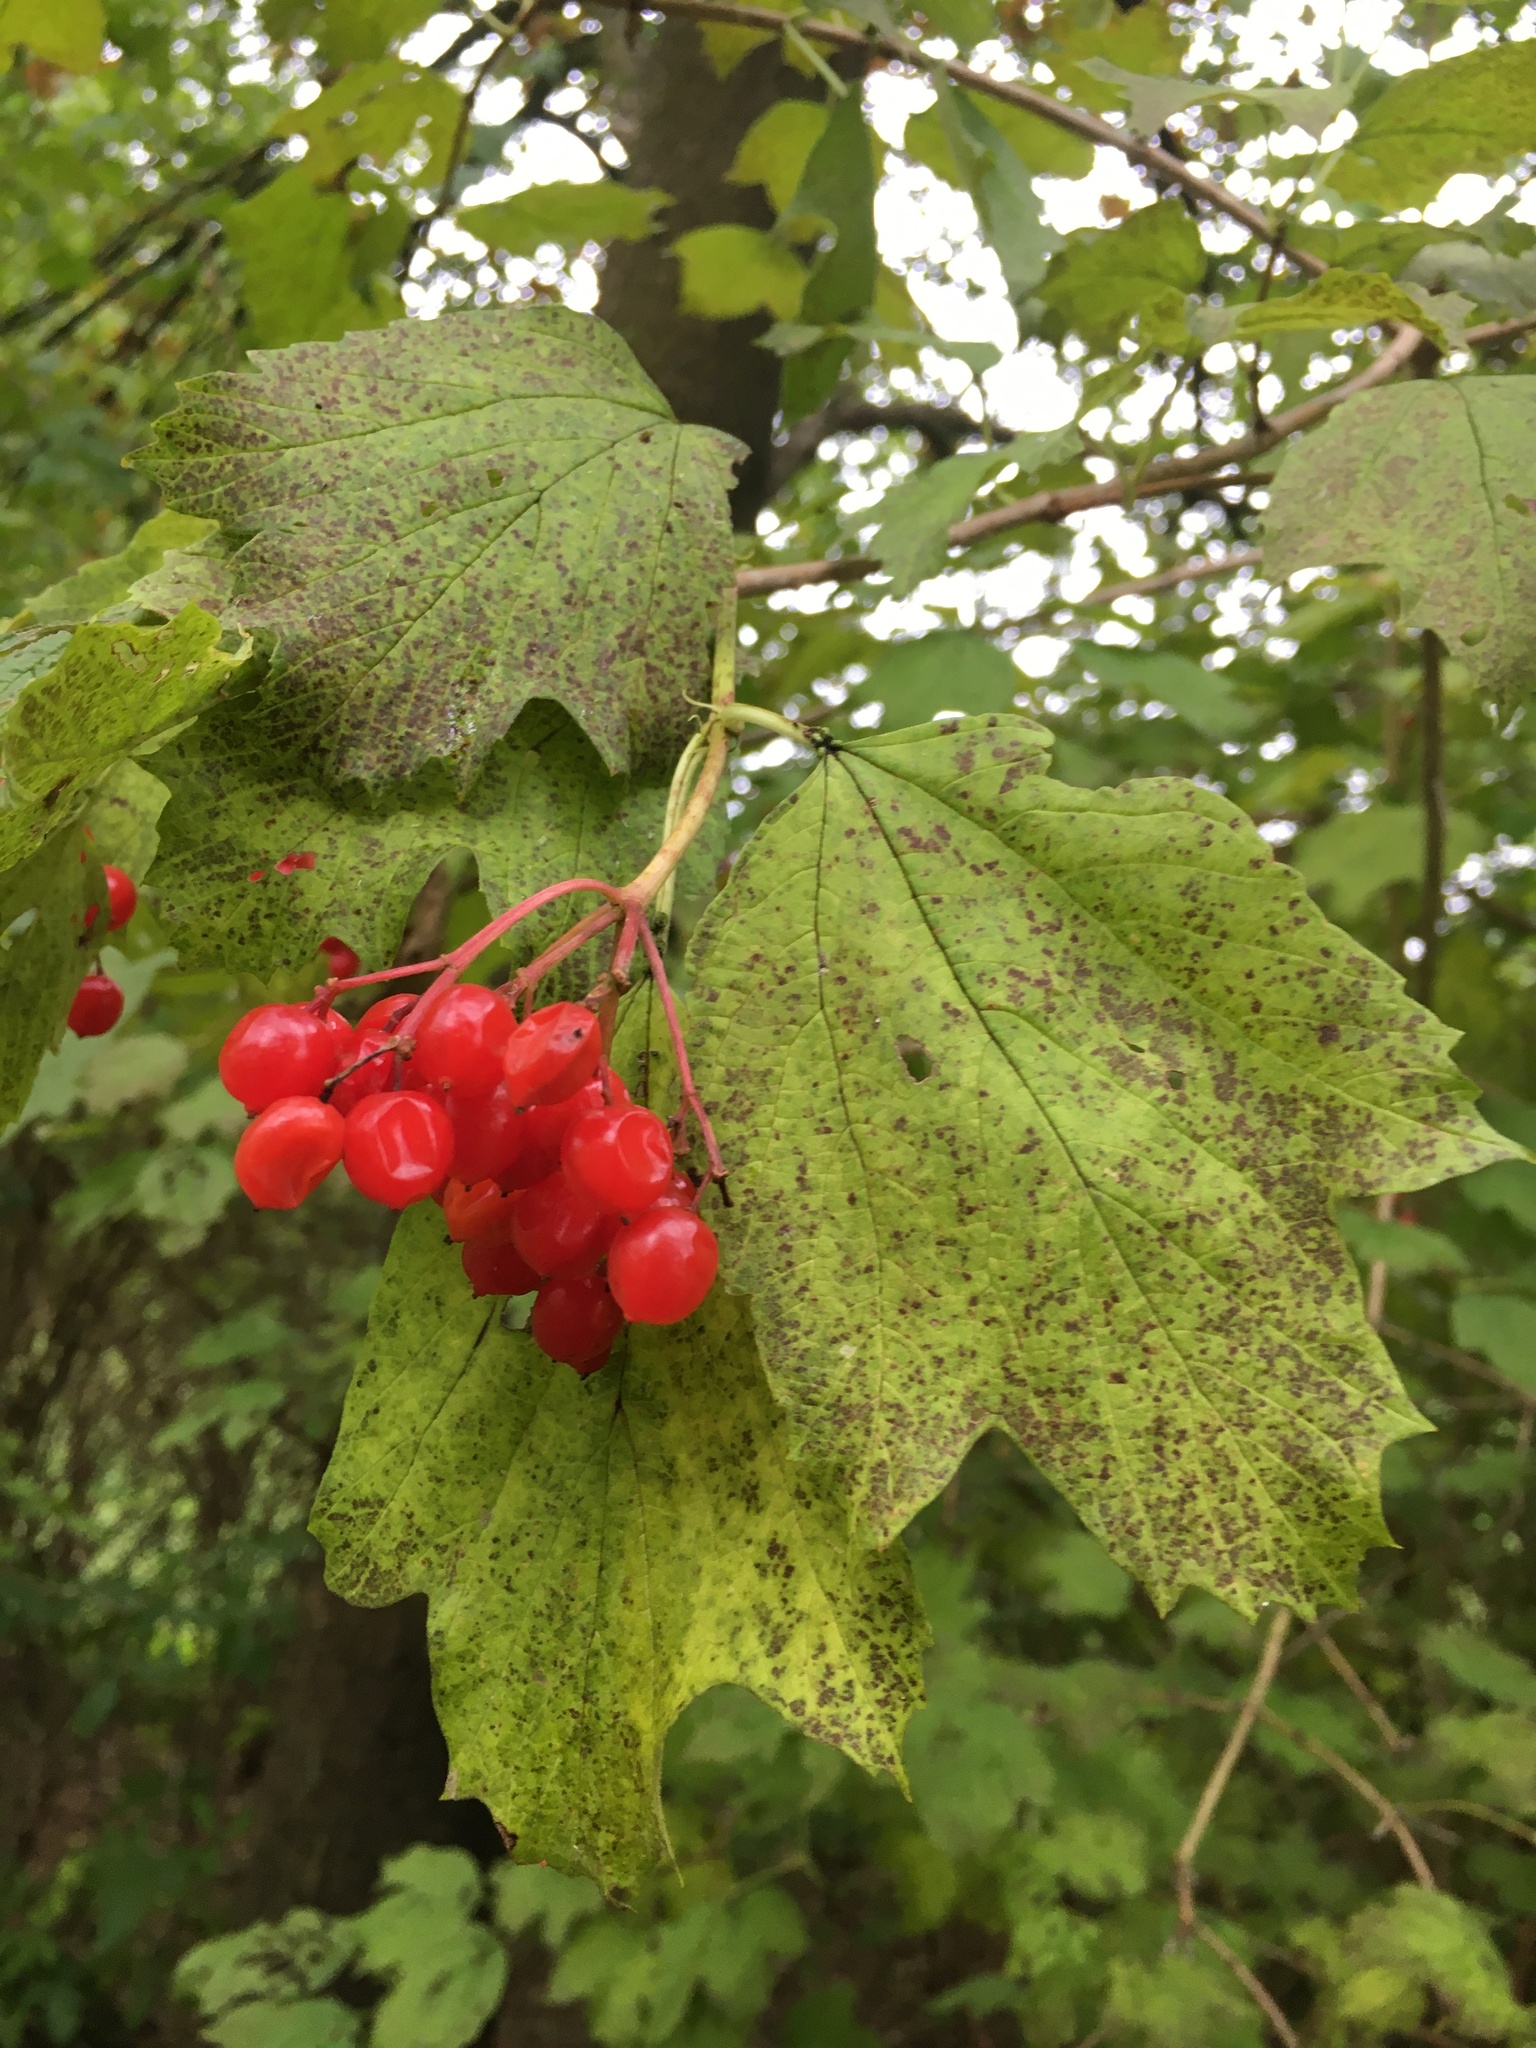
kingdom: Plantae
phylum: Tracheophyta
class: Magnoliopsida
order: Dipsacales
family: Viburnaceae
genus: Viburnum
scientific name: Viburnum opulus
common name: Guelder-rose
